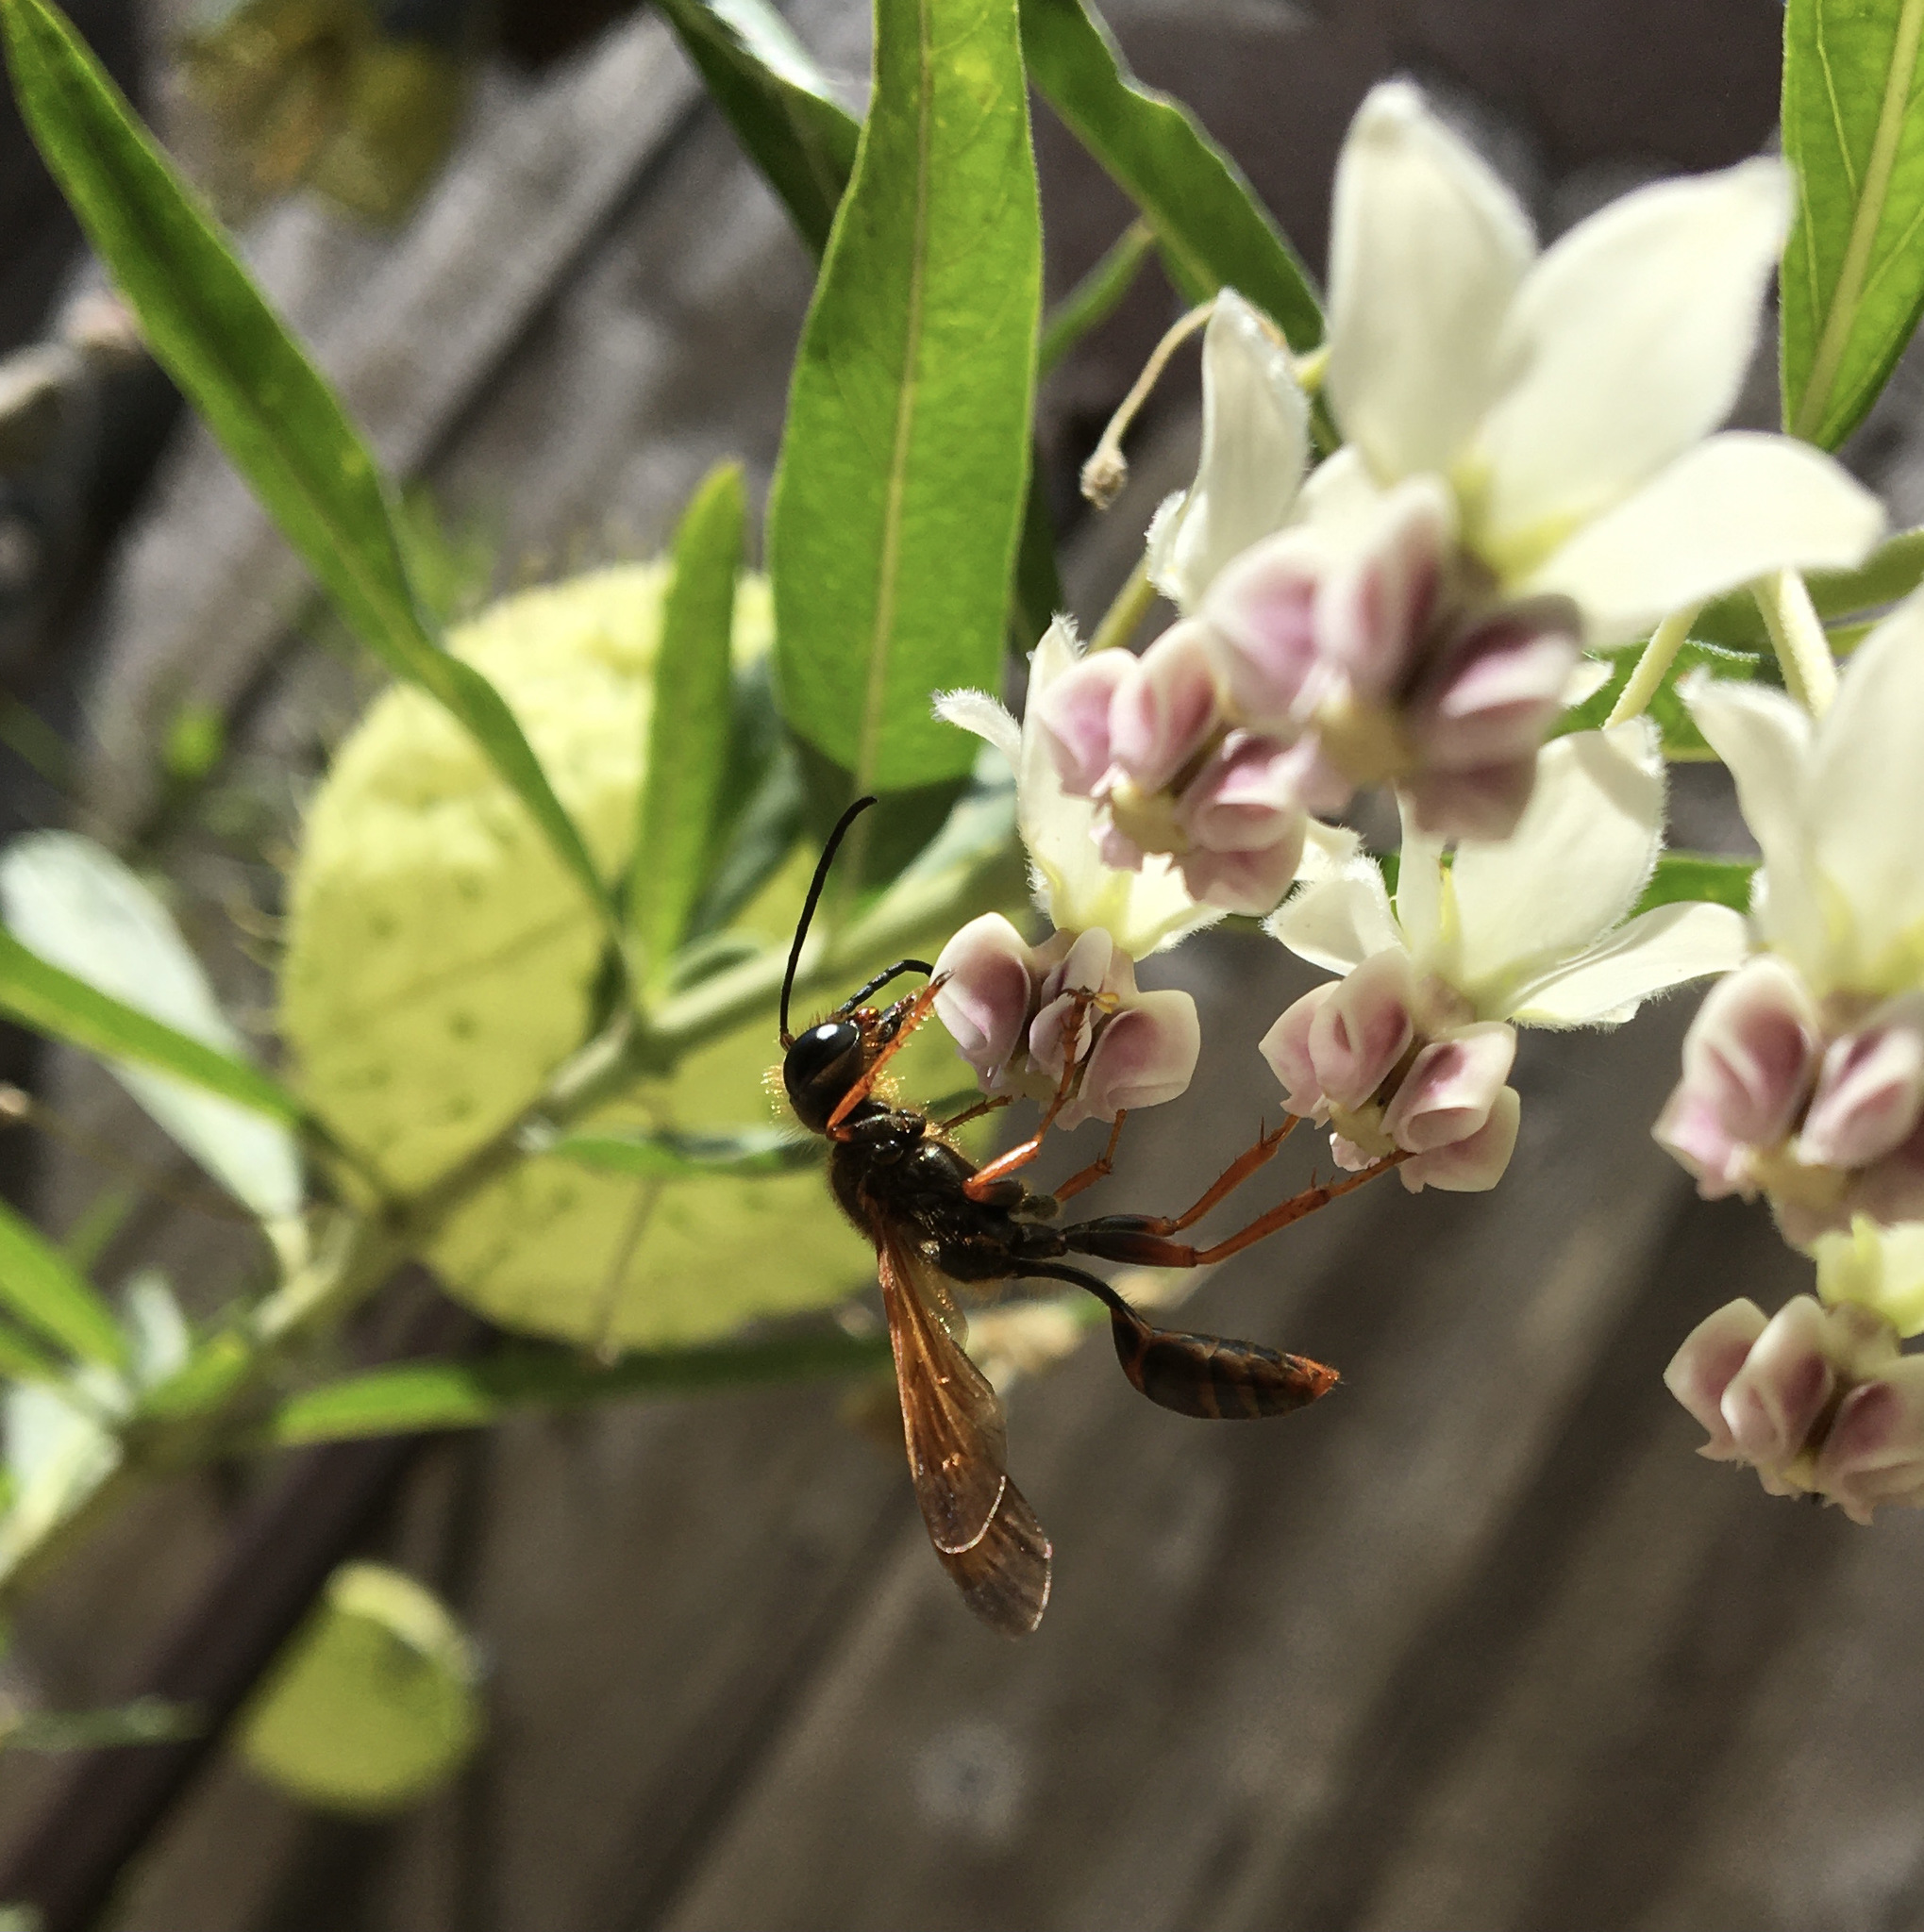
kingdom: Animalia
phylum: Arthropoda
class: Insecta
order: Hymenoptera
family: Sphecidae
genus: Isodontia
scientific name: Isodontia elegans
